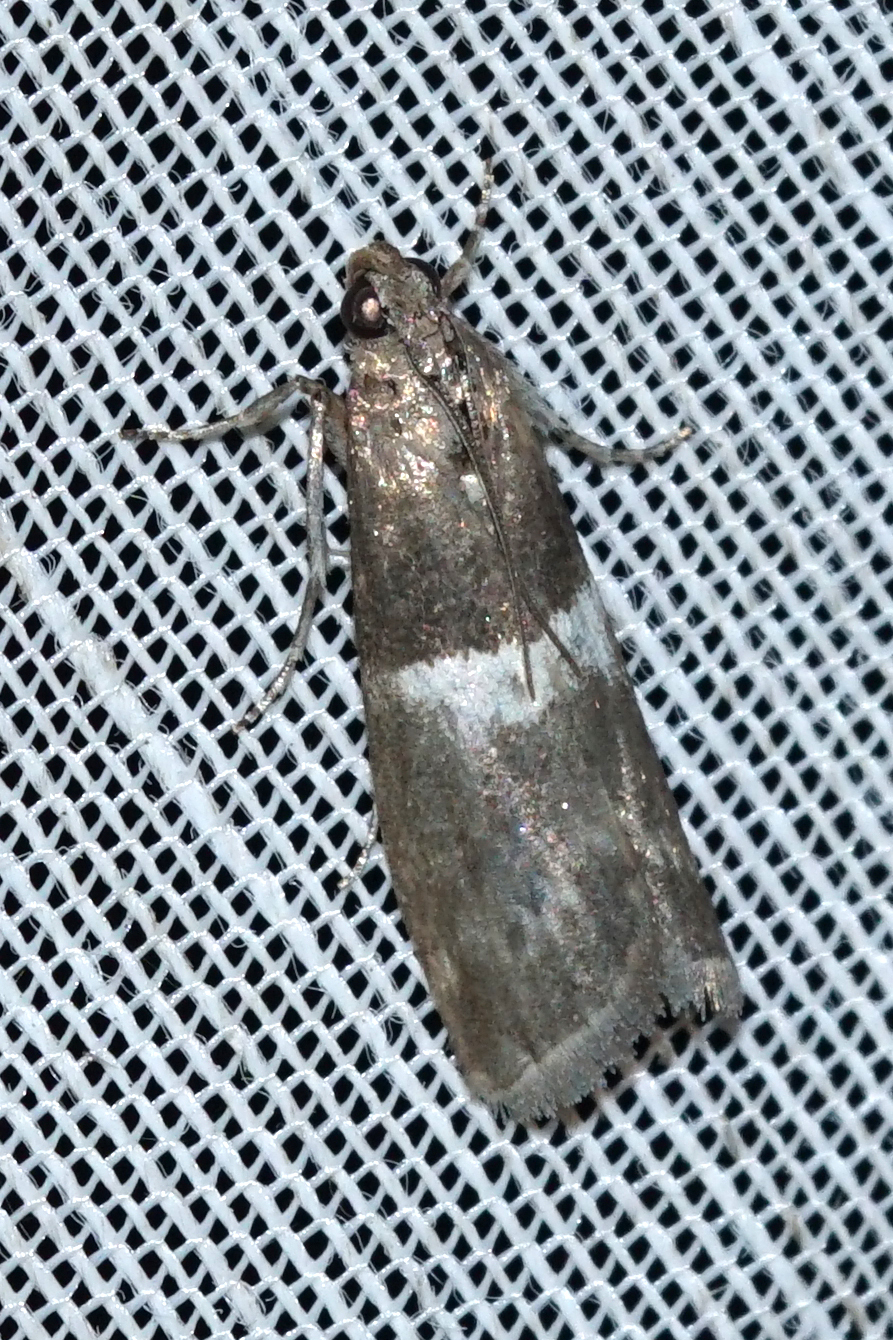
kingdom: Animalia
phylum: Arthropoda
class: Insecta
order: Lepidoptera
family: Pyralidae
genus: Elegia
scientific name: Elegia similella
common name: White-barred knot-horn
